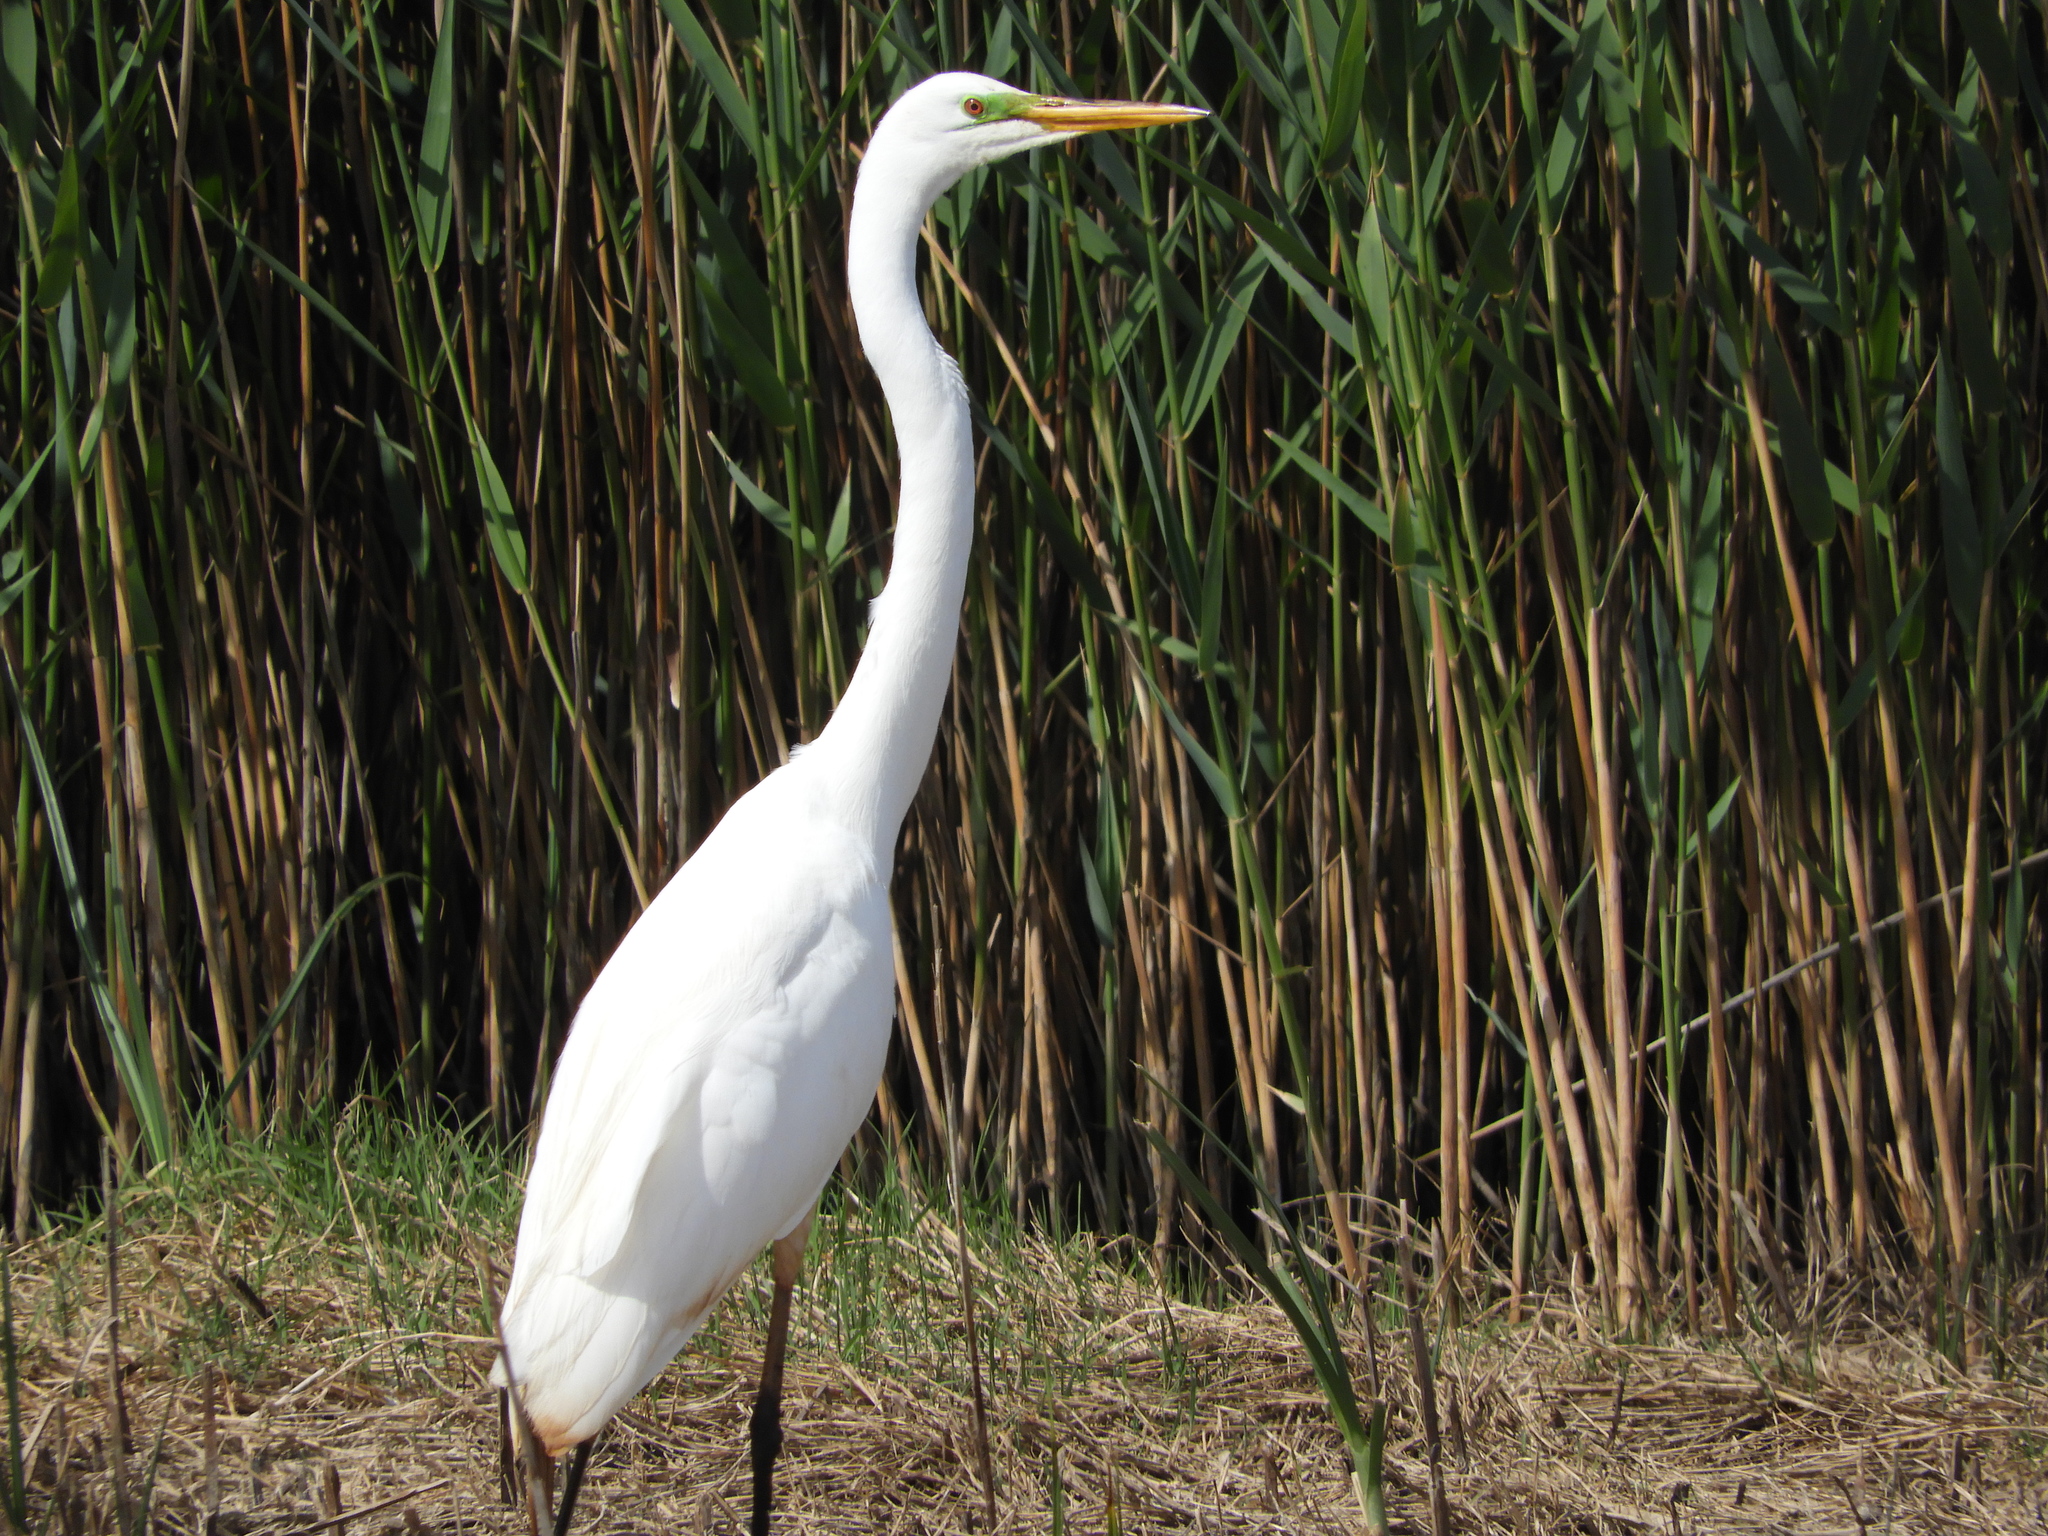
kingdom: Animalia
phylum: Chordata
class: Aves
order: Pelecaniformes
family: Ardeidae
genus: Ardea
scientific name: Ardea alba
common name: Great egret
